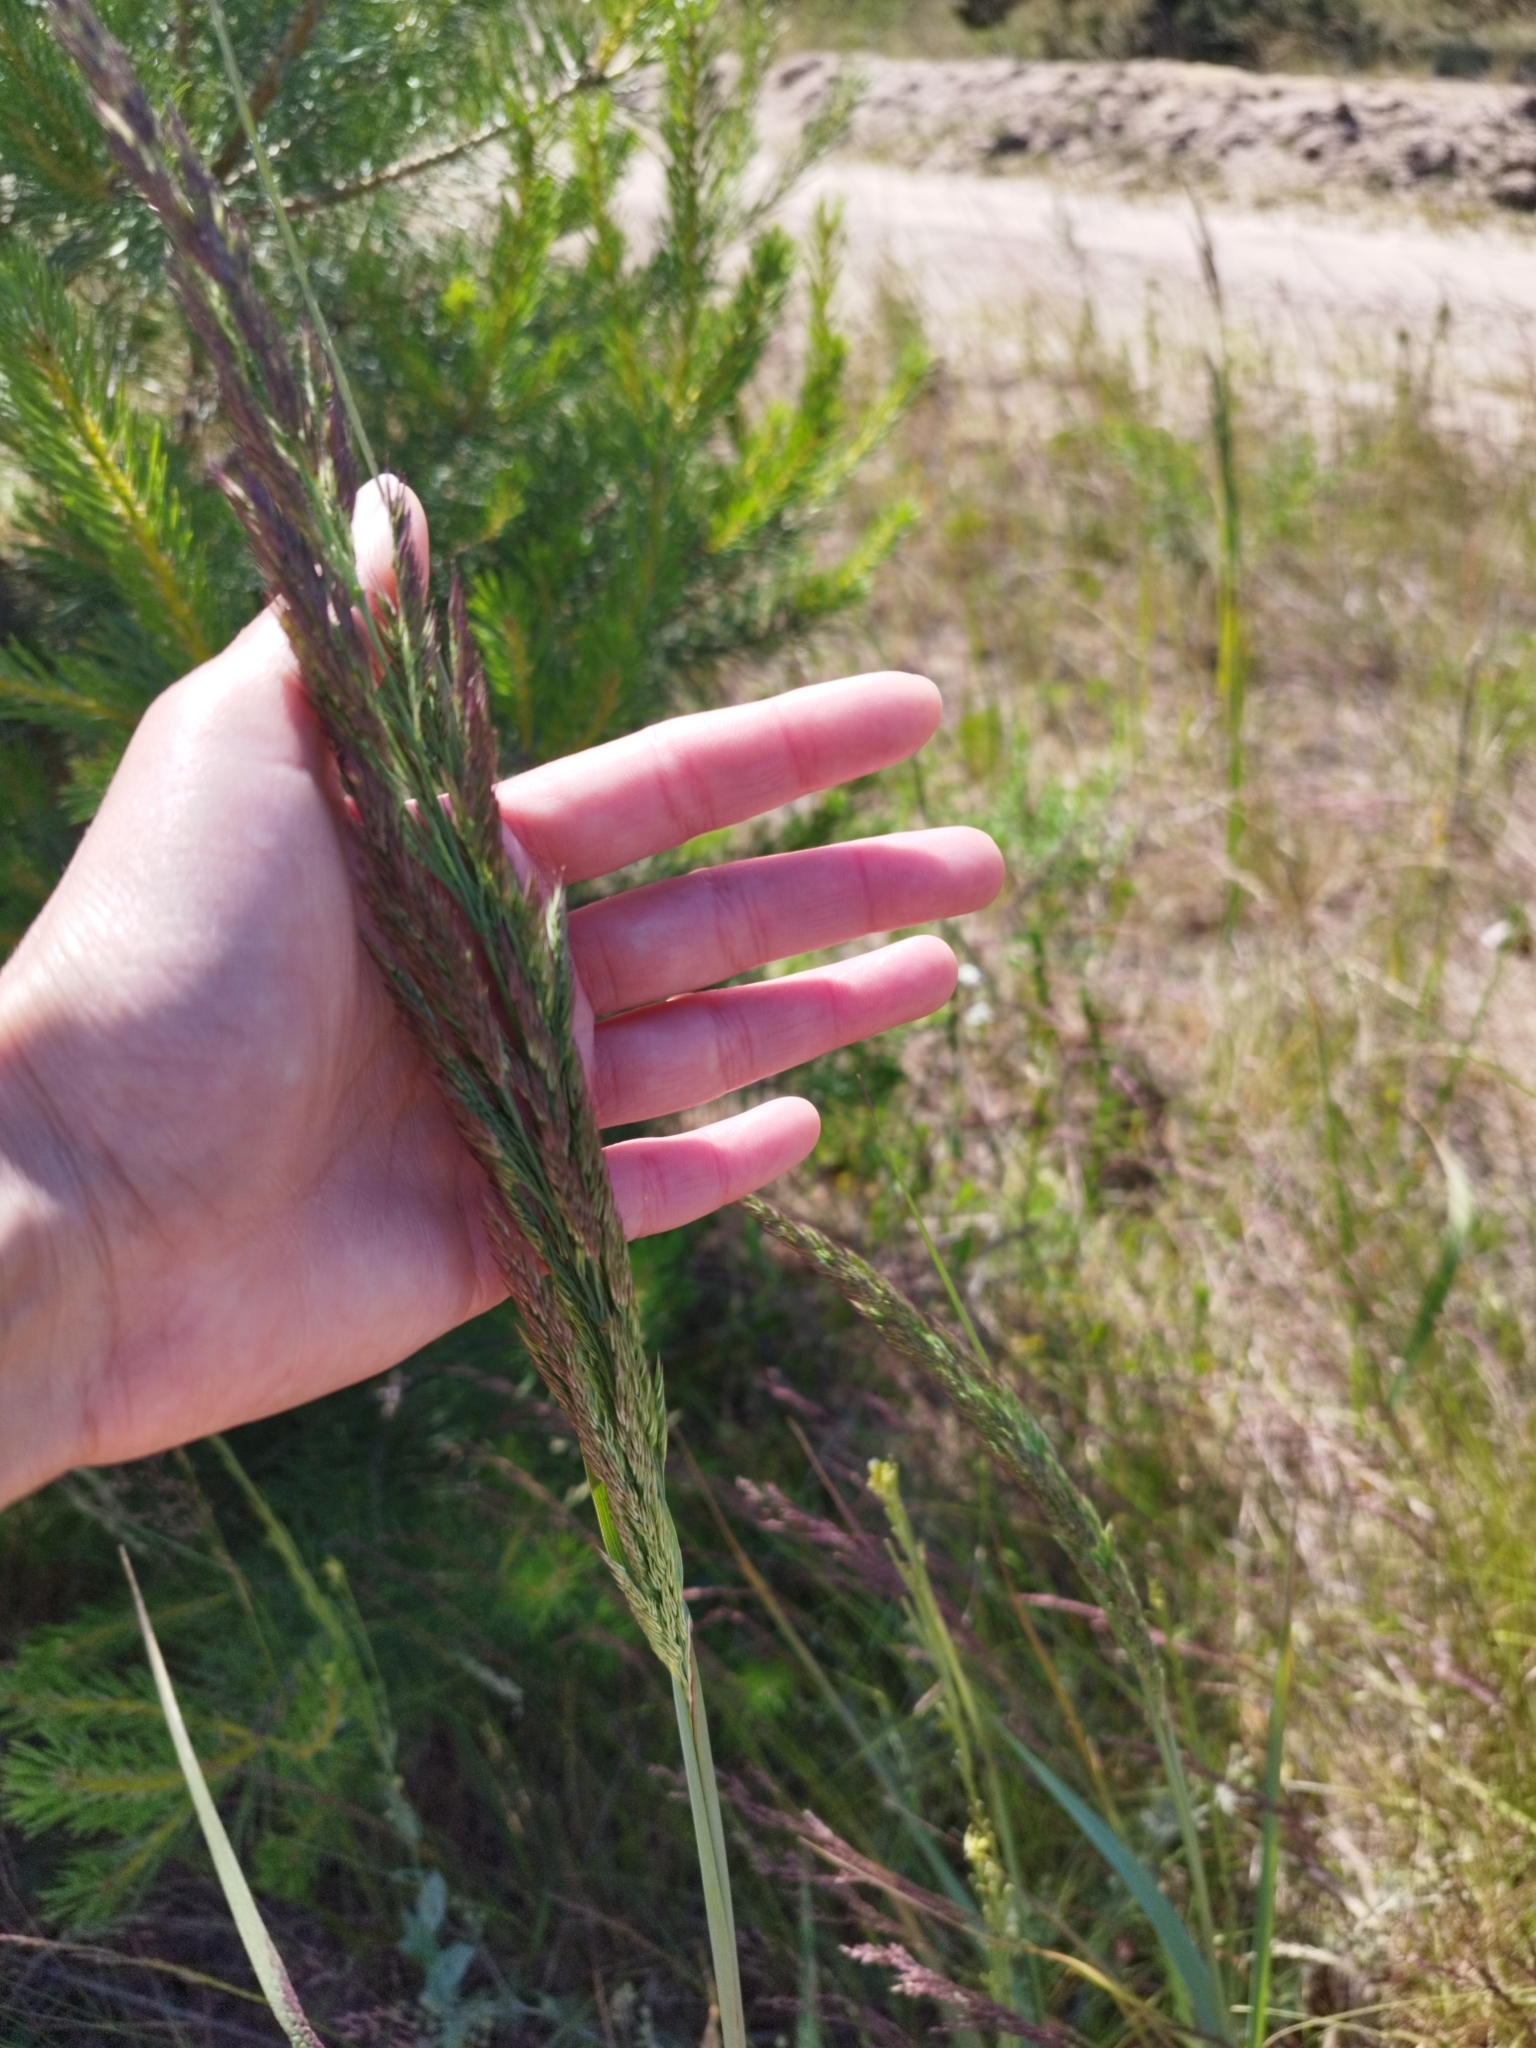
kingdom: Plantae
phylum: Tracheophyta
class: Liliopsida
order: Poales
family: Poaceae
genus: Calamagrostis
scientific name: Calamagrostis epigejos
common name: Wood small-reed
